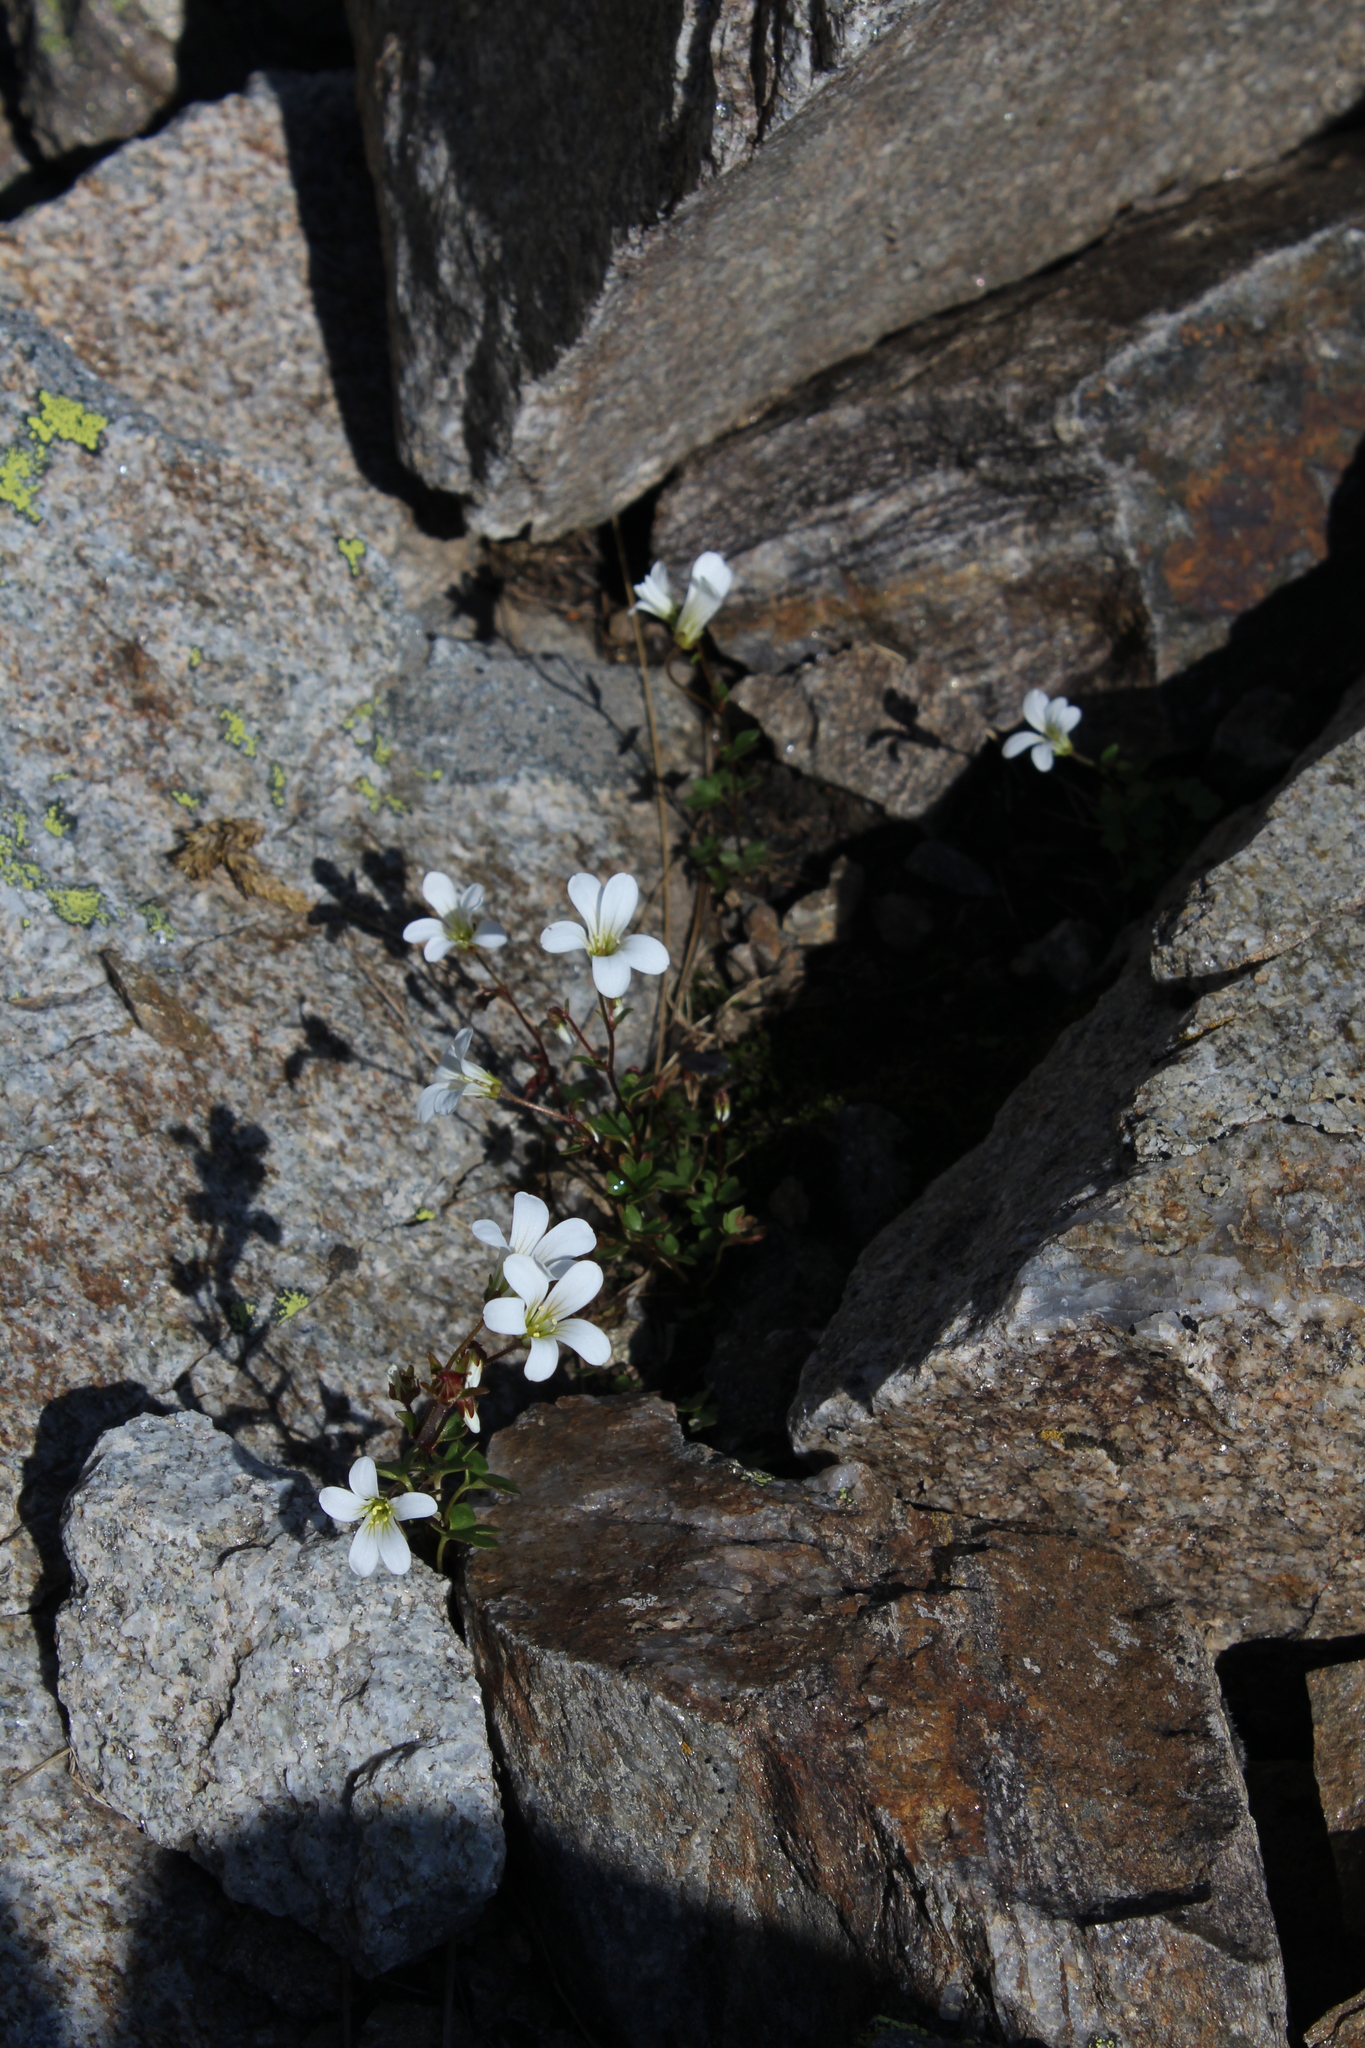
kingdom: Plantae
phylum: Tracheophyta
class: Magnoliopsida
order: Saxifragales
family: Saxifragaceae
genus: Saxifraga
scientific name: Saxifraga sibirica
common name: Siberian saxifrage
